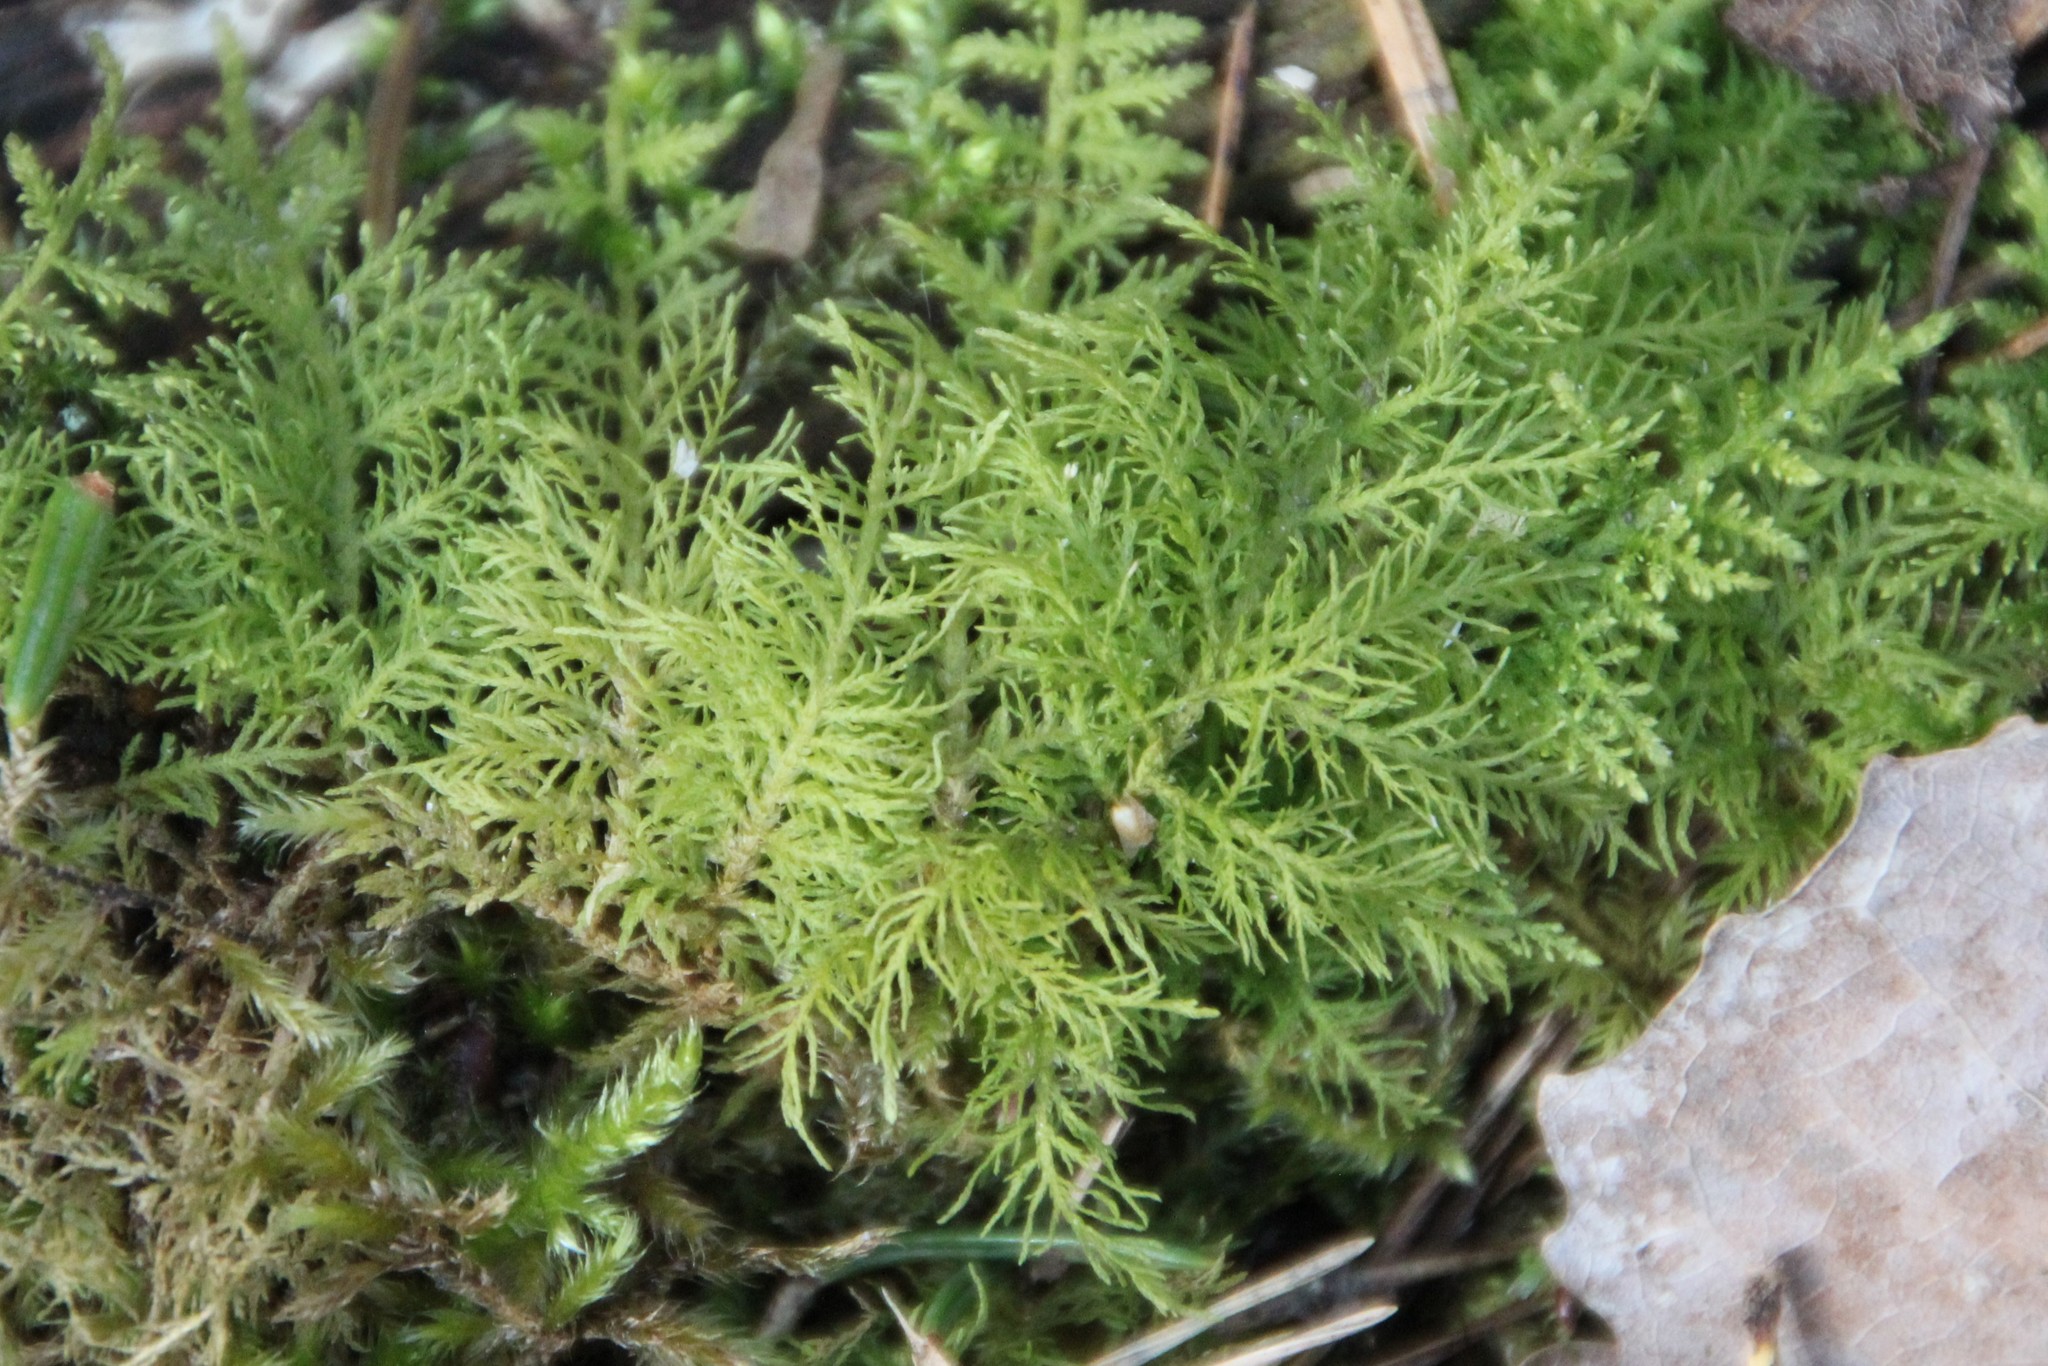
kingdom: Plantae
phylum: Bryophyta
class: Bryopsida
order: Hypnales
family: Thuidiaceae
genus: Thuidium
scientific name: Thuidium tamariscinum
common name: Common tamarisk-moss
